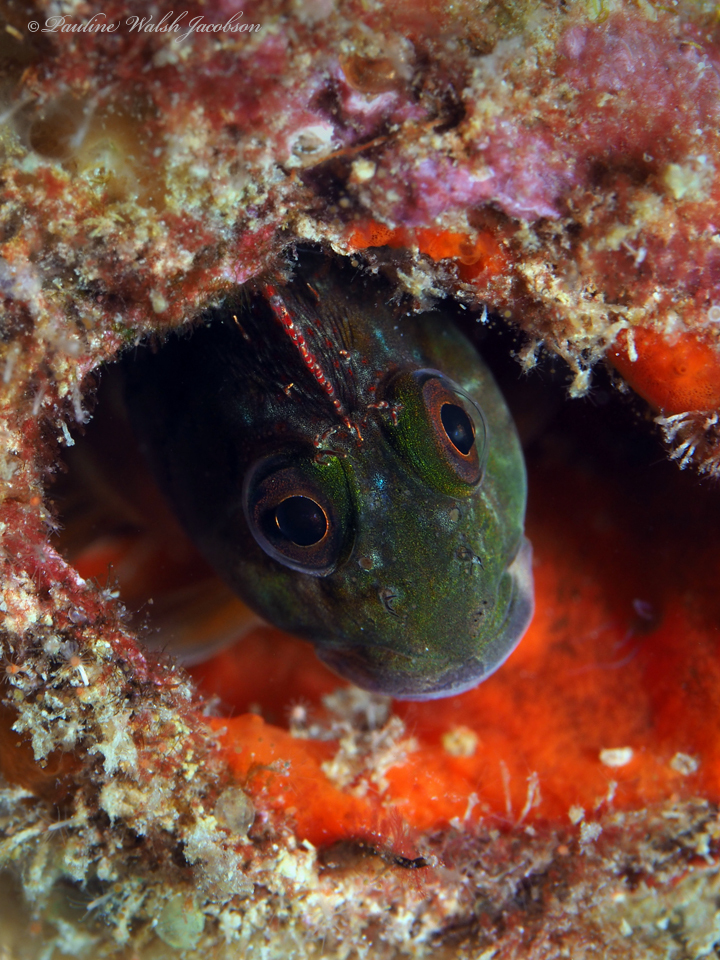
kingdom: Animalia
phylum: Chordata
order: Perciformes
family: Blenniidae
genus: Scartella
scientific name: Scartella cristata
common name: Molly miller
